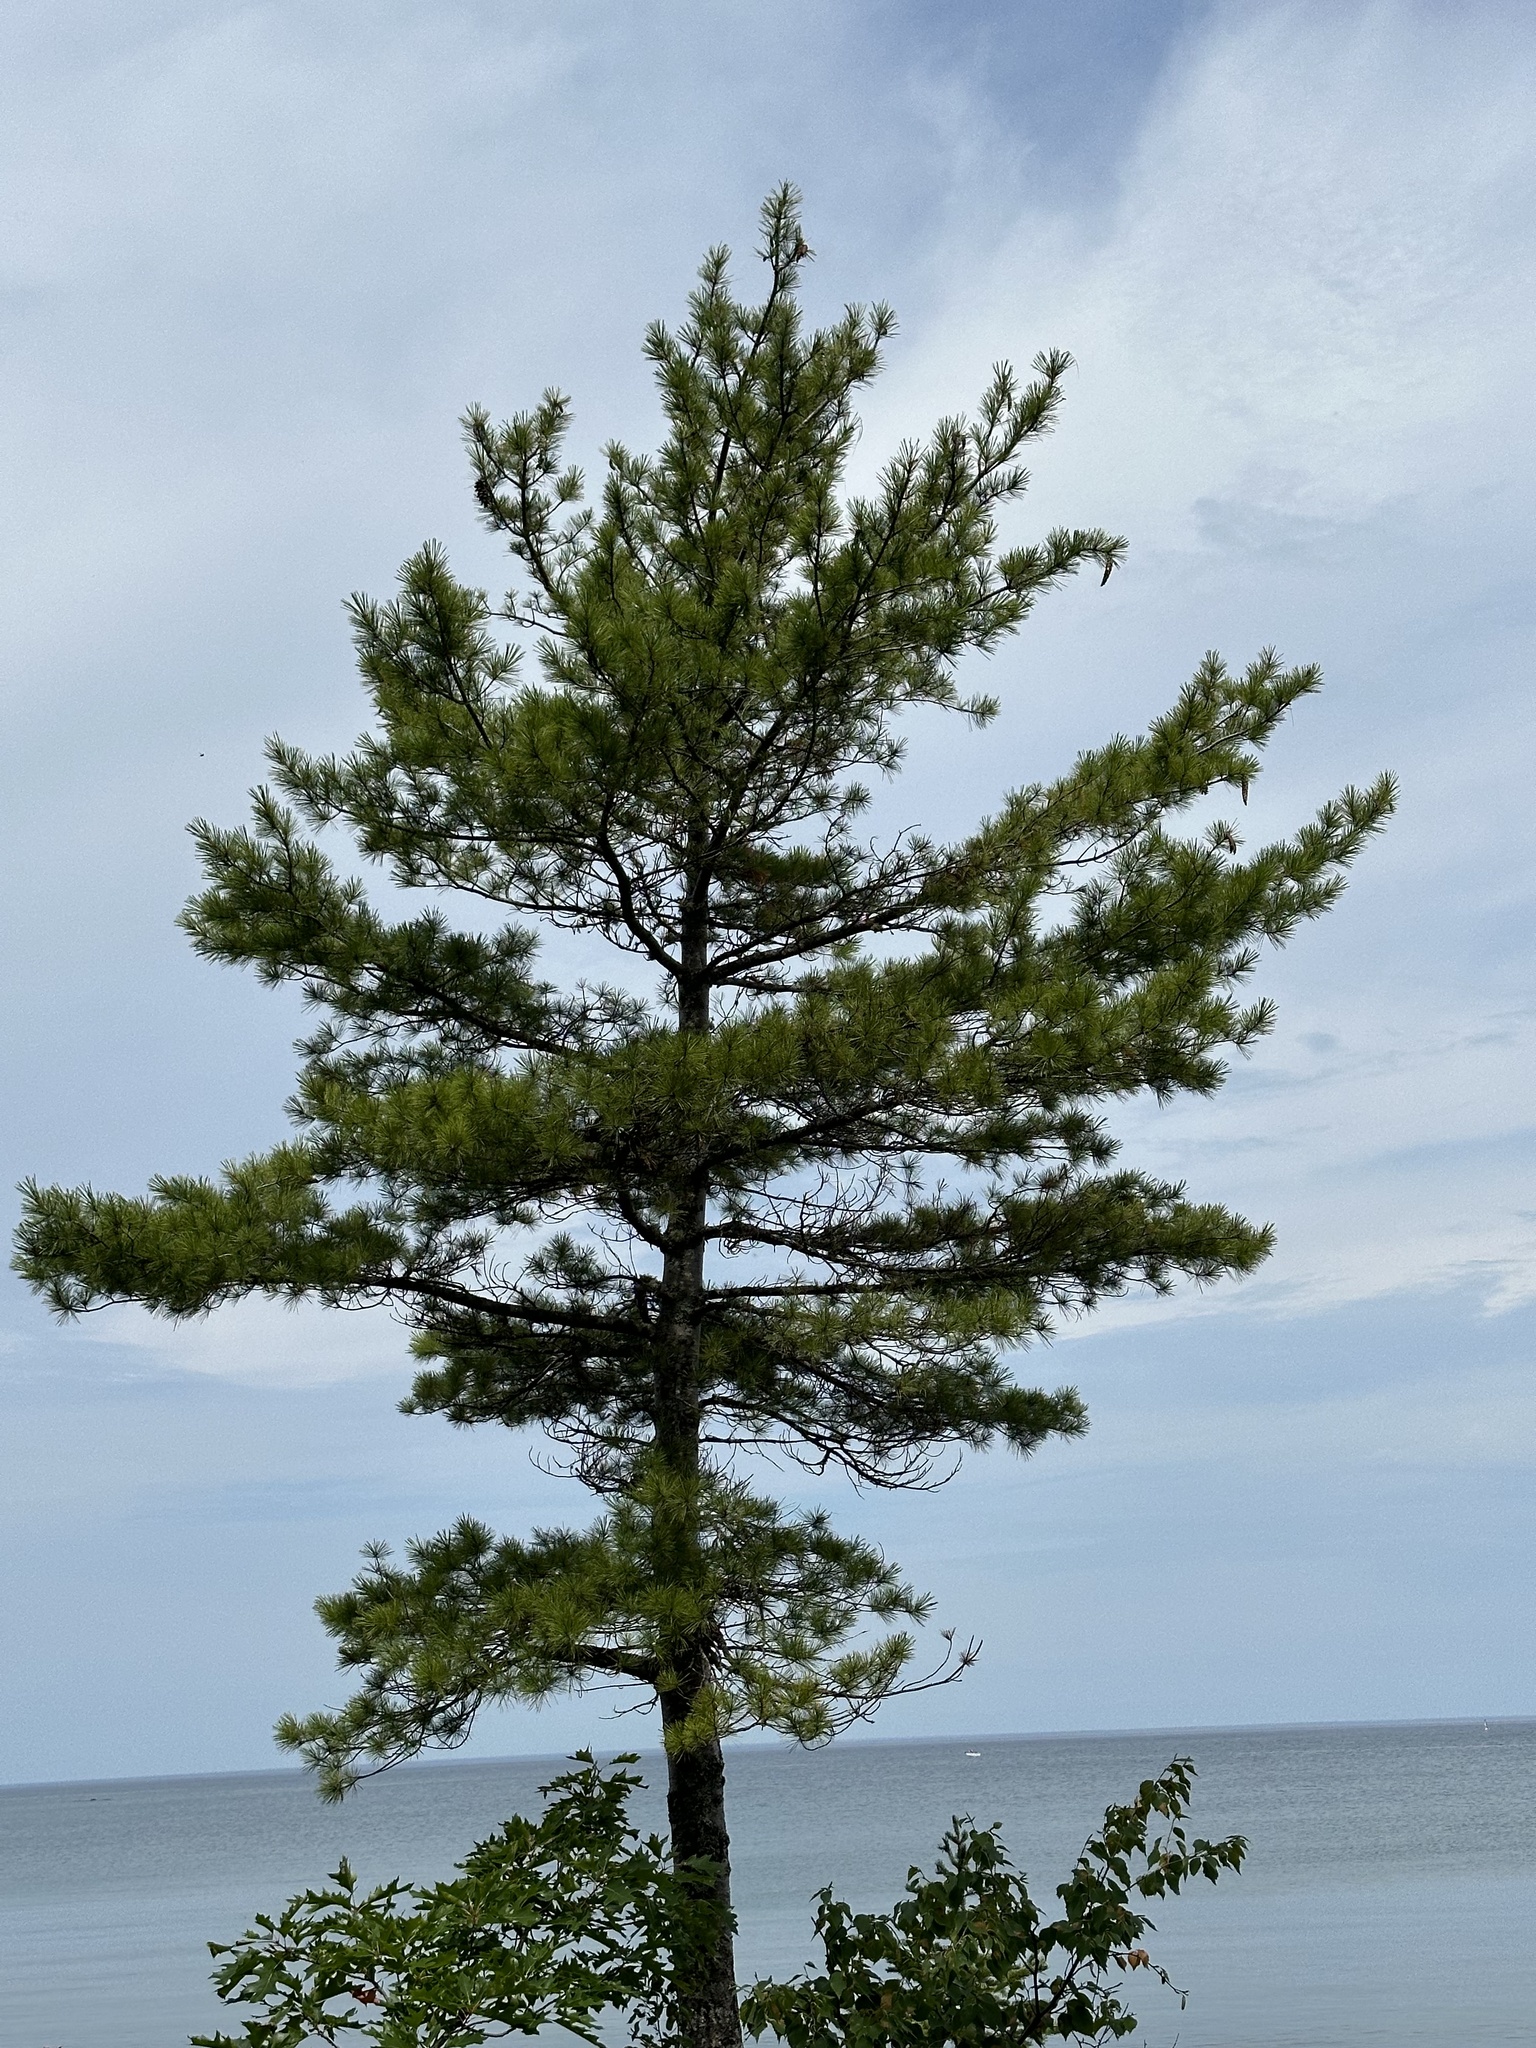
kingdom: Plantae
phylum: Tracheophyta
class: Pinopsida
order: Pinales
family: Pinaceae
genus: Pinus
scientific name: Pinus strobus
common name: Weymouth pine
